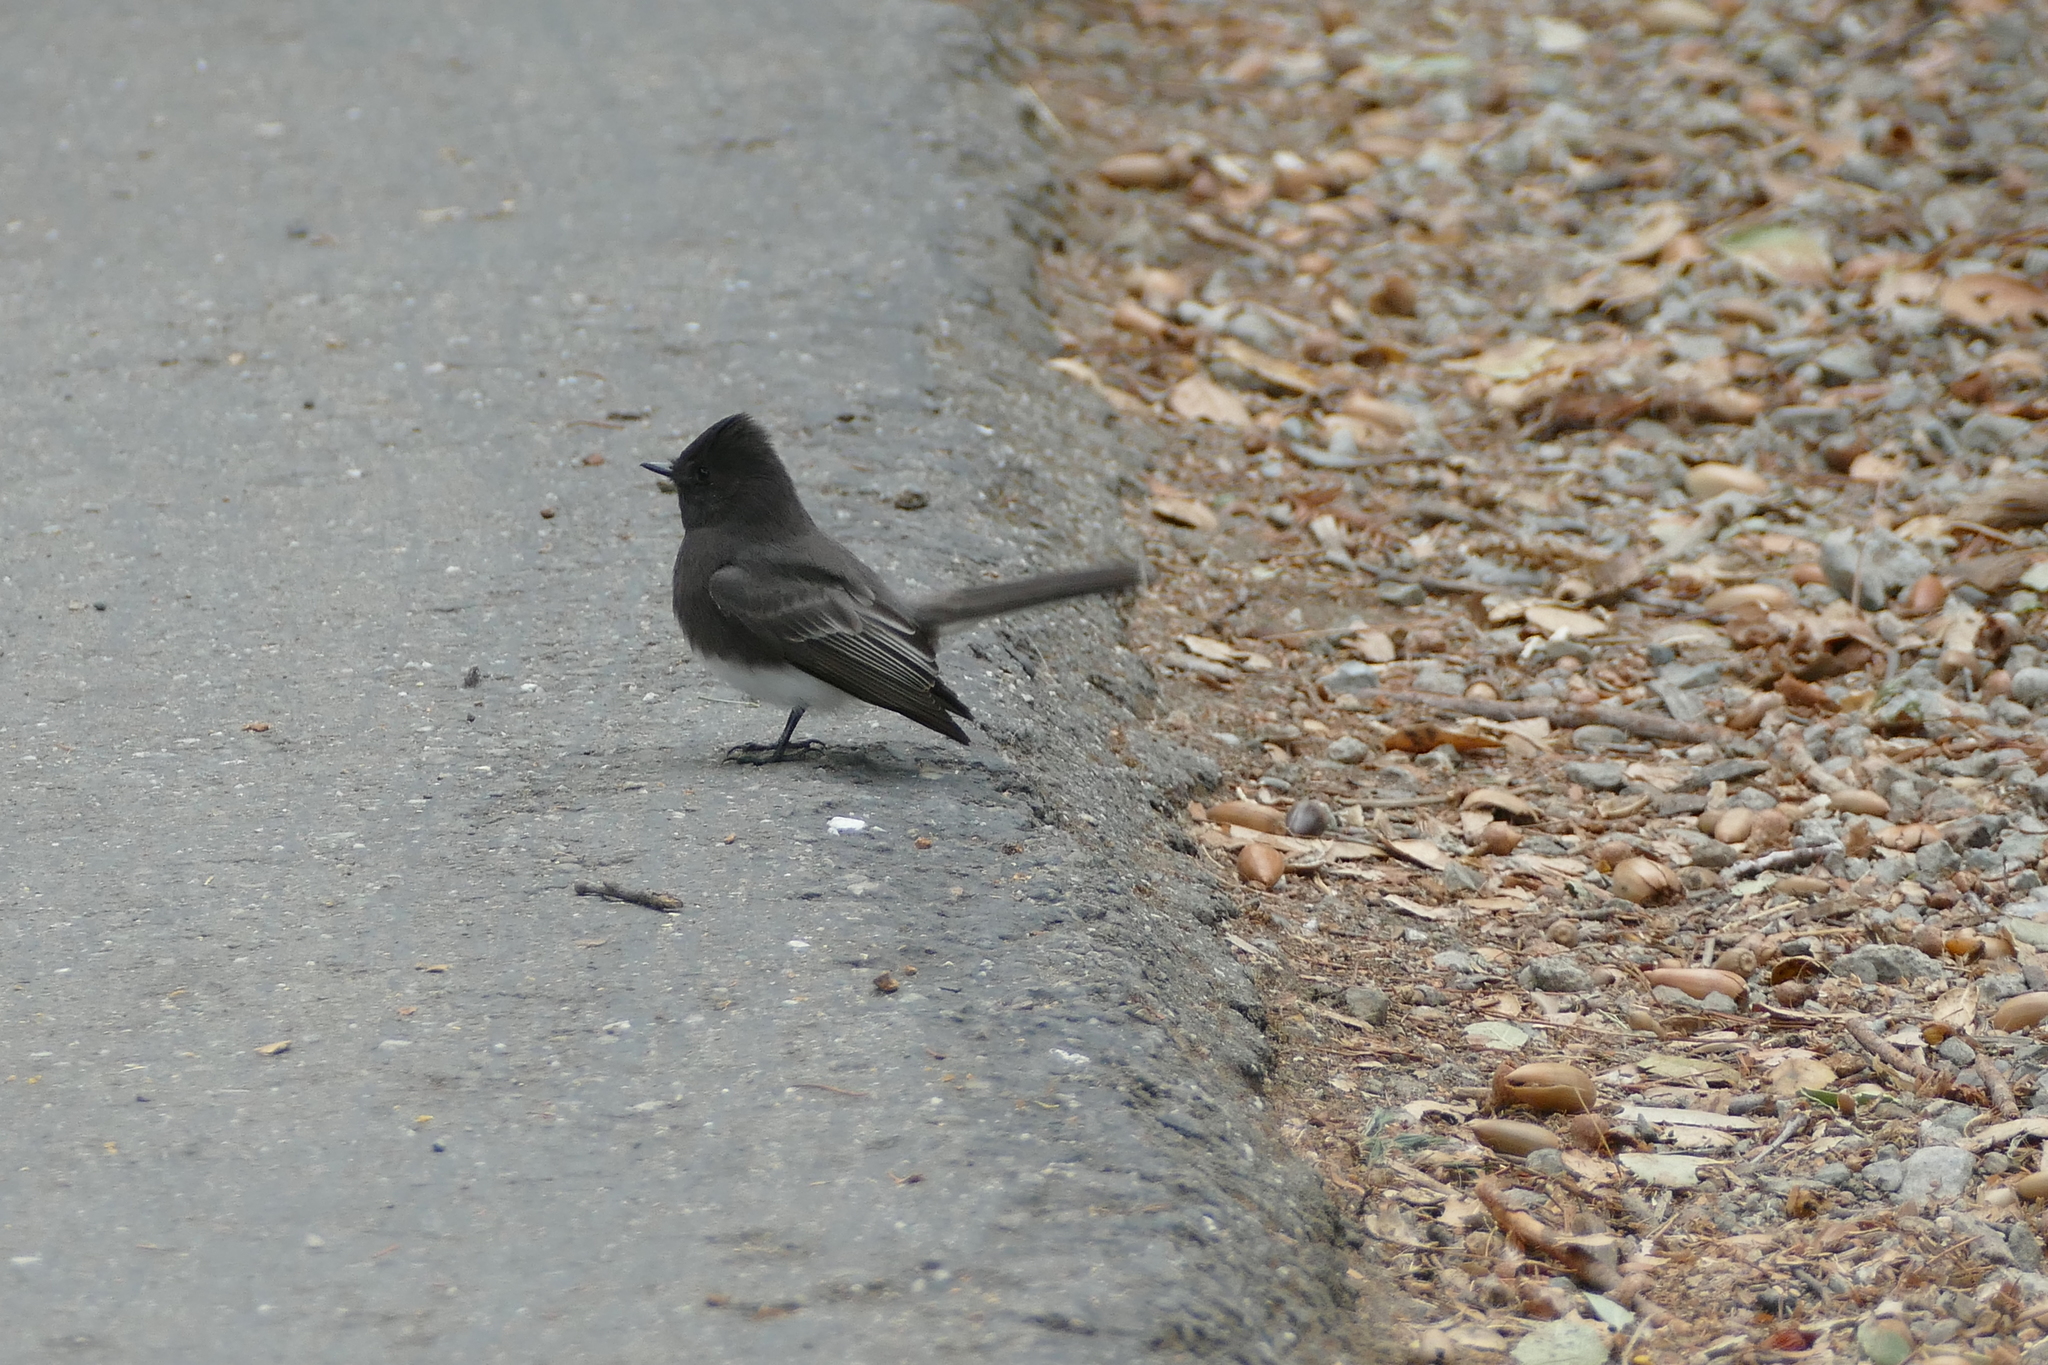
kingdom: Animalia
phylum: Chordata
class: Aves
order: Passeriformes
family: Tyrannidae
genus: Sayornis
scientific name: Sayornis nigricans
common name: Black phoebe
